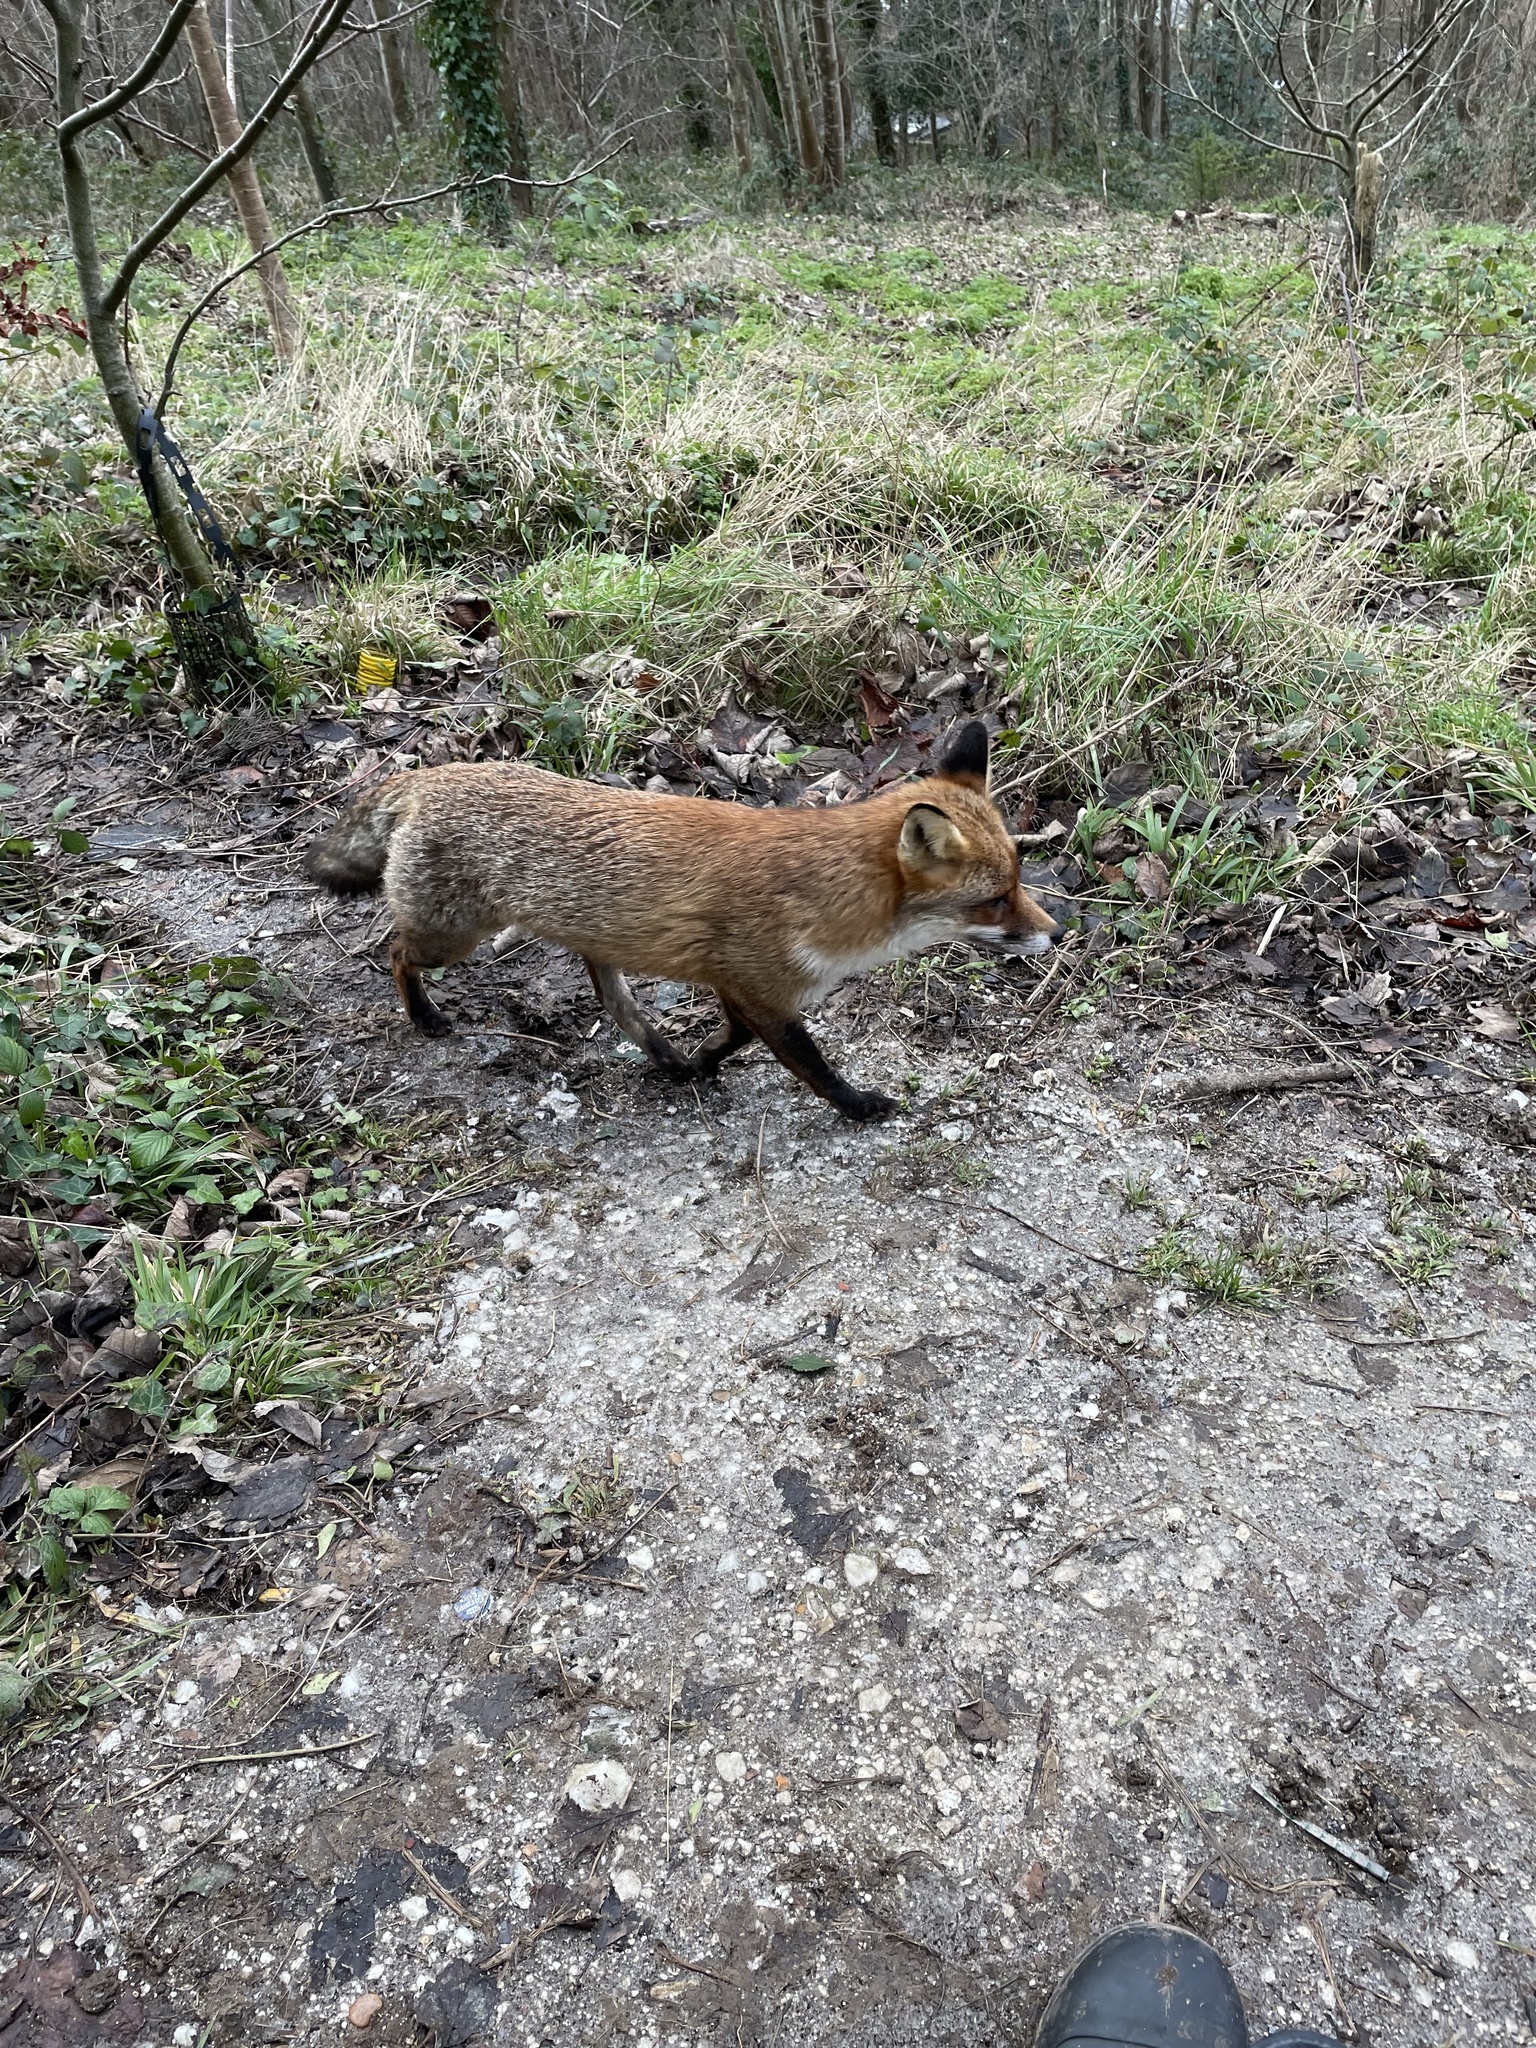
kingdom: Animalia
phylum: Chordata
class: Mammalia
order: Carnivora
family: Canidae
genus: Vulpes
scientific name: Vulpes vulpes
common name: Red fox
